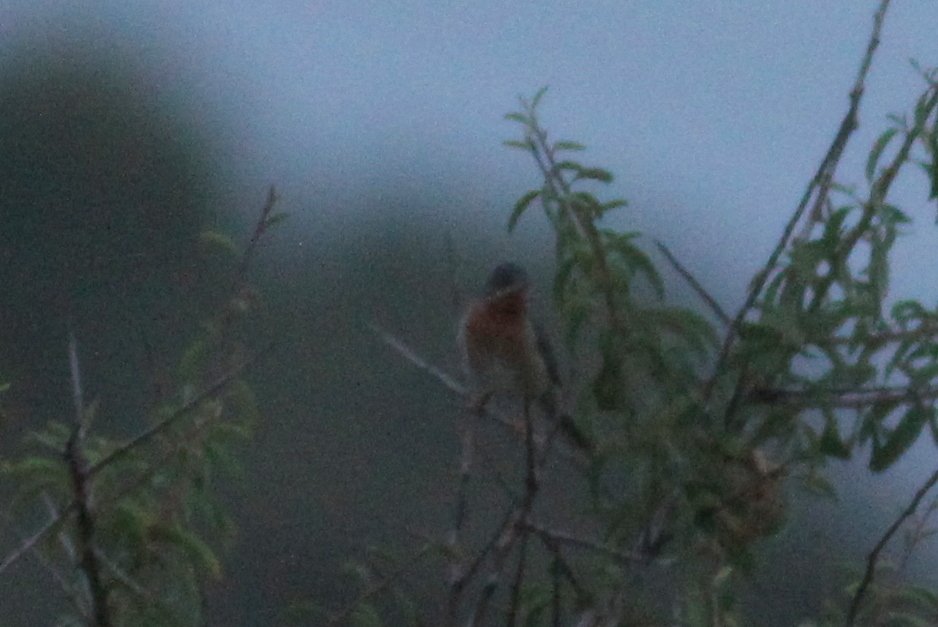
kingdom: Animalia
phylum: Chordata
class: Aves
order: Passeriformes
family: Sylviidae
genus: Curruca
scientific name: Curruca cantillans
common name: Subalpine warbler
